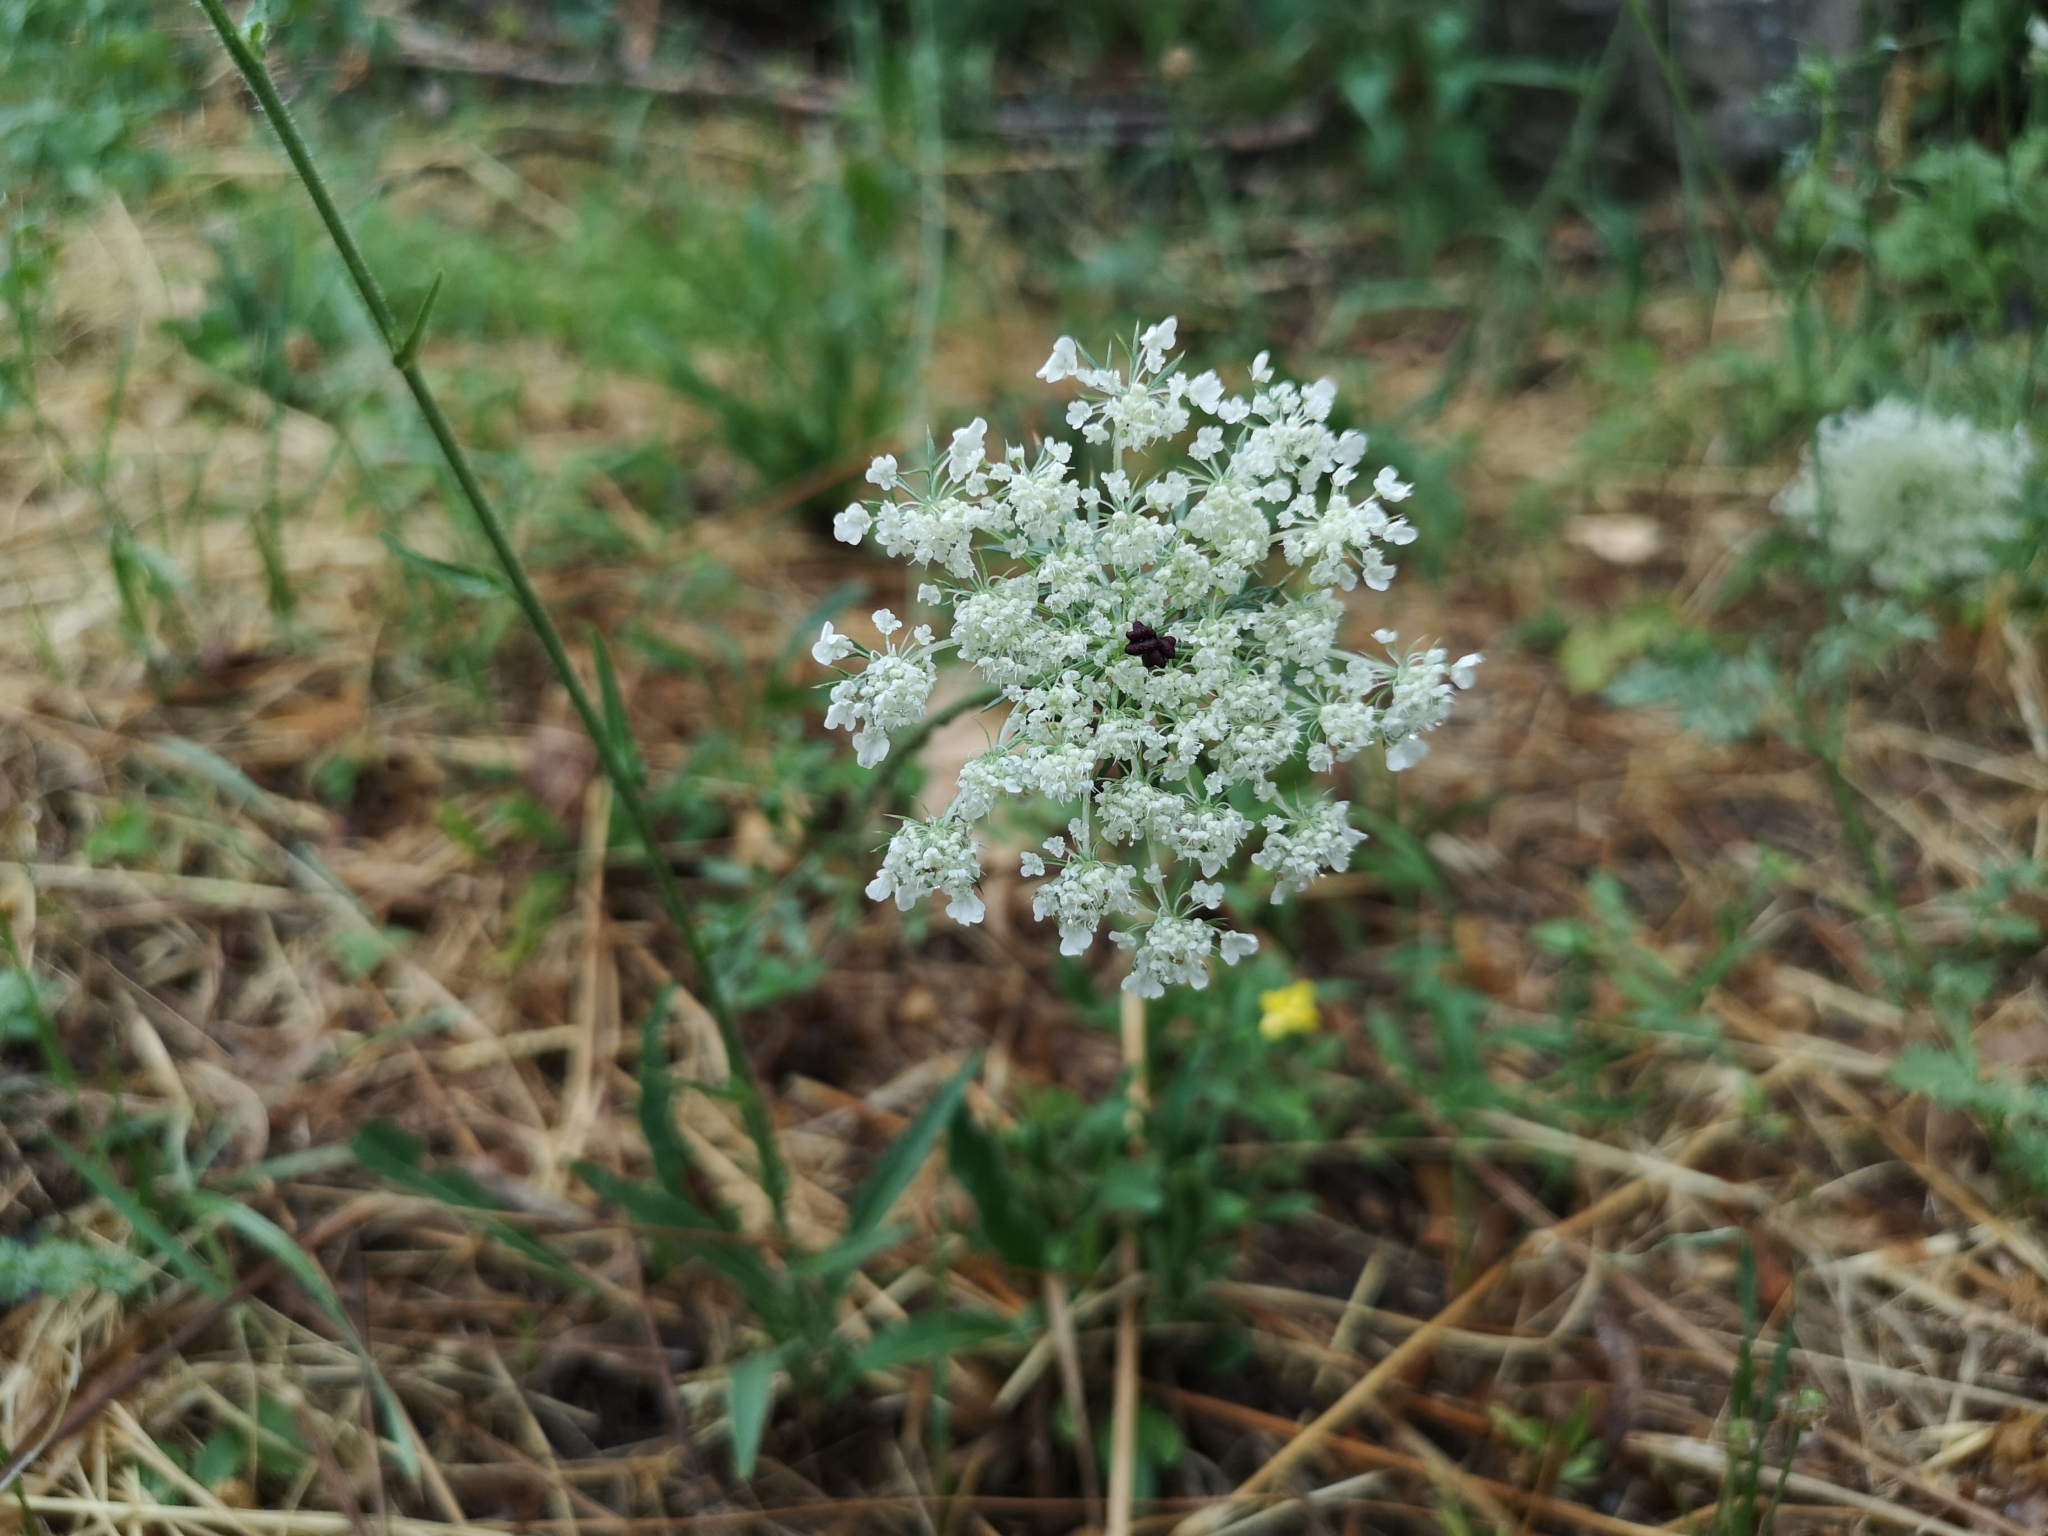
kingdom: Plantae
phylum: Tracheophyta
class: Magnoliopsida
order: Apiales
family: Apiaceae
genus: Daucus
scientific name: Daucus carota
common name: Wild carrot
